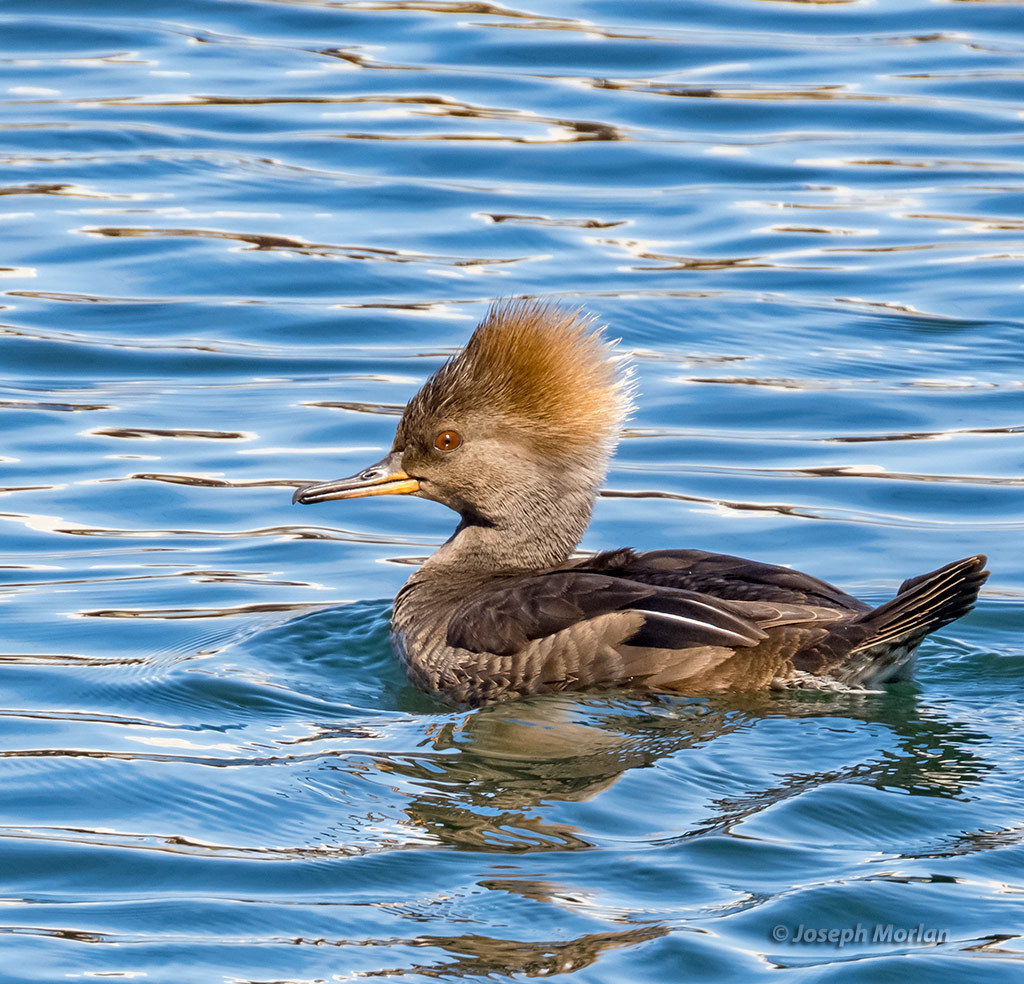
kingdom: Animalia
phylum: Chordata
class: Aves
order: Anseriformes
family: Anatidae
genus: Lophodytes
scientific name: Lophodytes cucullatus
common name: Hooded merganser
